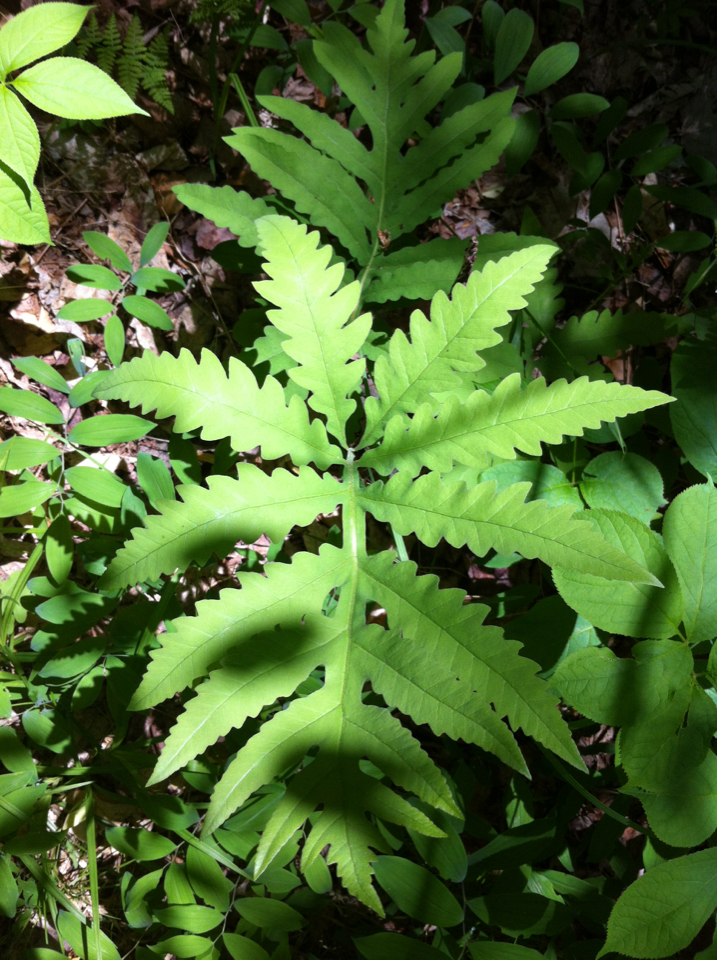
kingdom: Plantae
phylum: Tracheophyta
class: Polypodiopsida
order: Polypodiales
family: Onocleaceae
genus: Onoclea
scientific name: Onoclea sensibilis
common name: Sensitive fern
